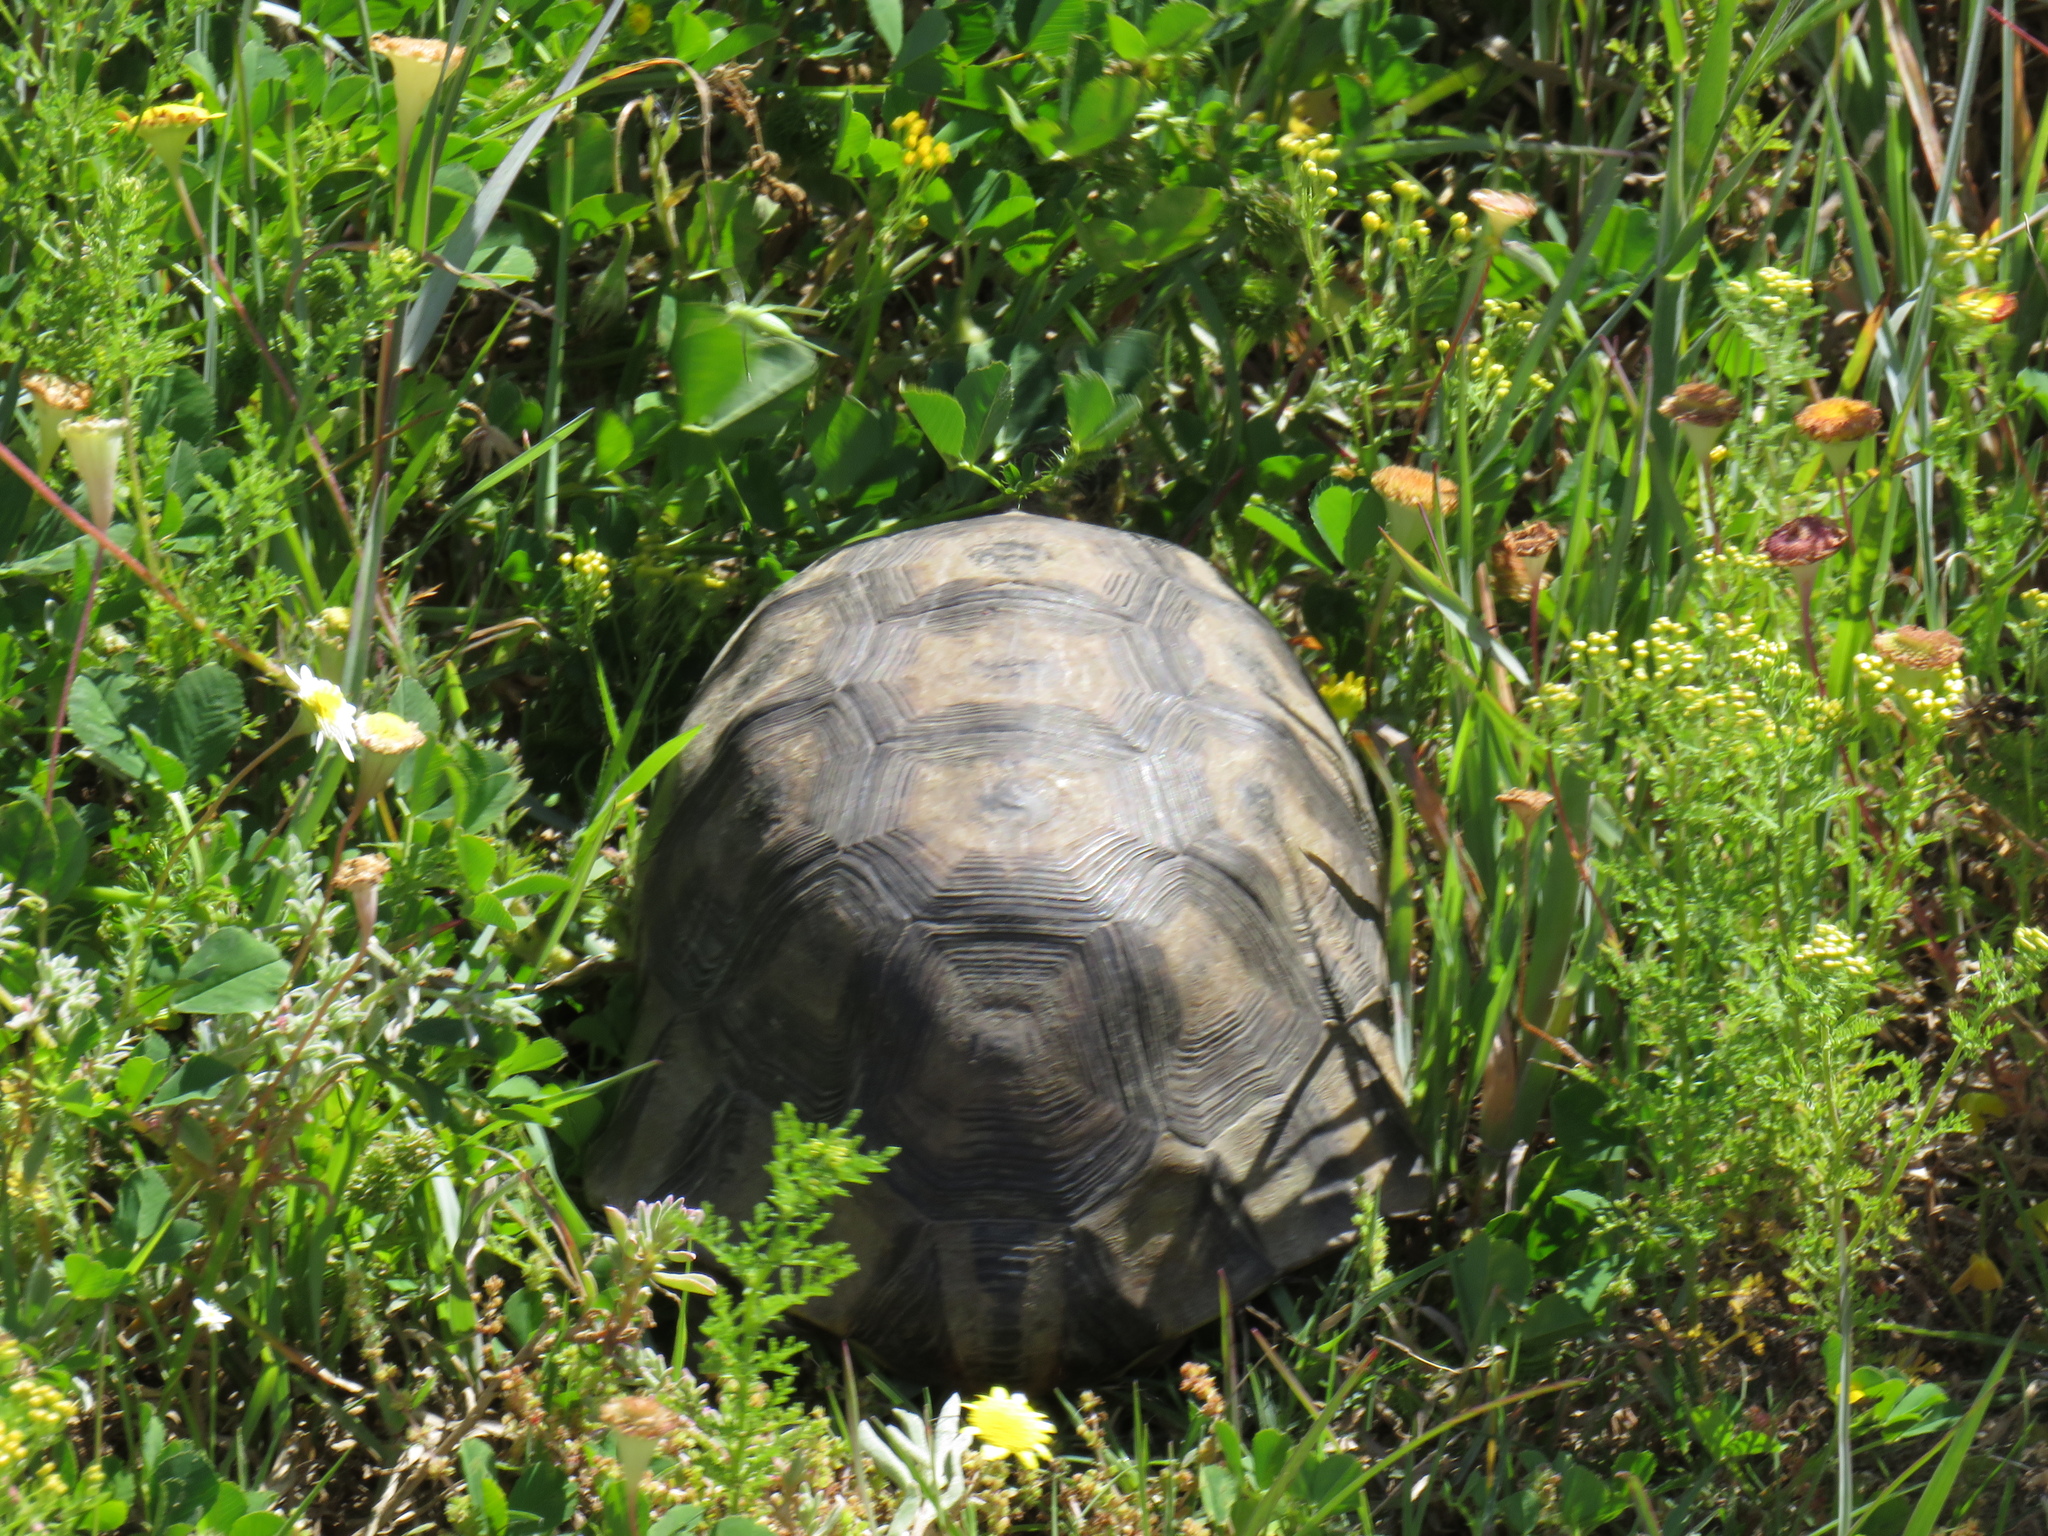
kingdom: Animalia
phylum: Chordata
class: Testudines
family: Testudinidae
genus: Chersina
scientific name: Chersina angulata
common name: South african bowsprit tortoise
